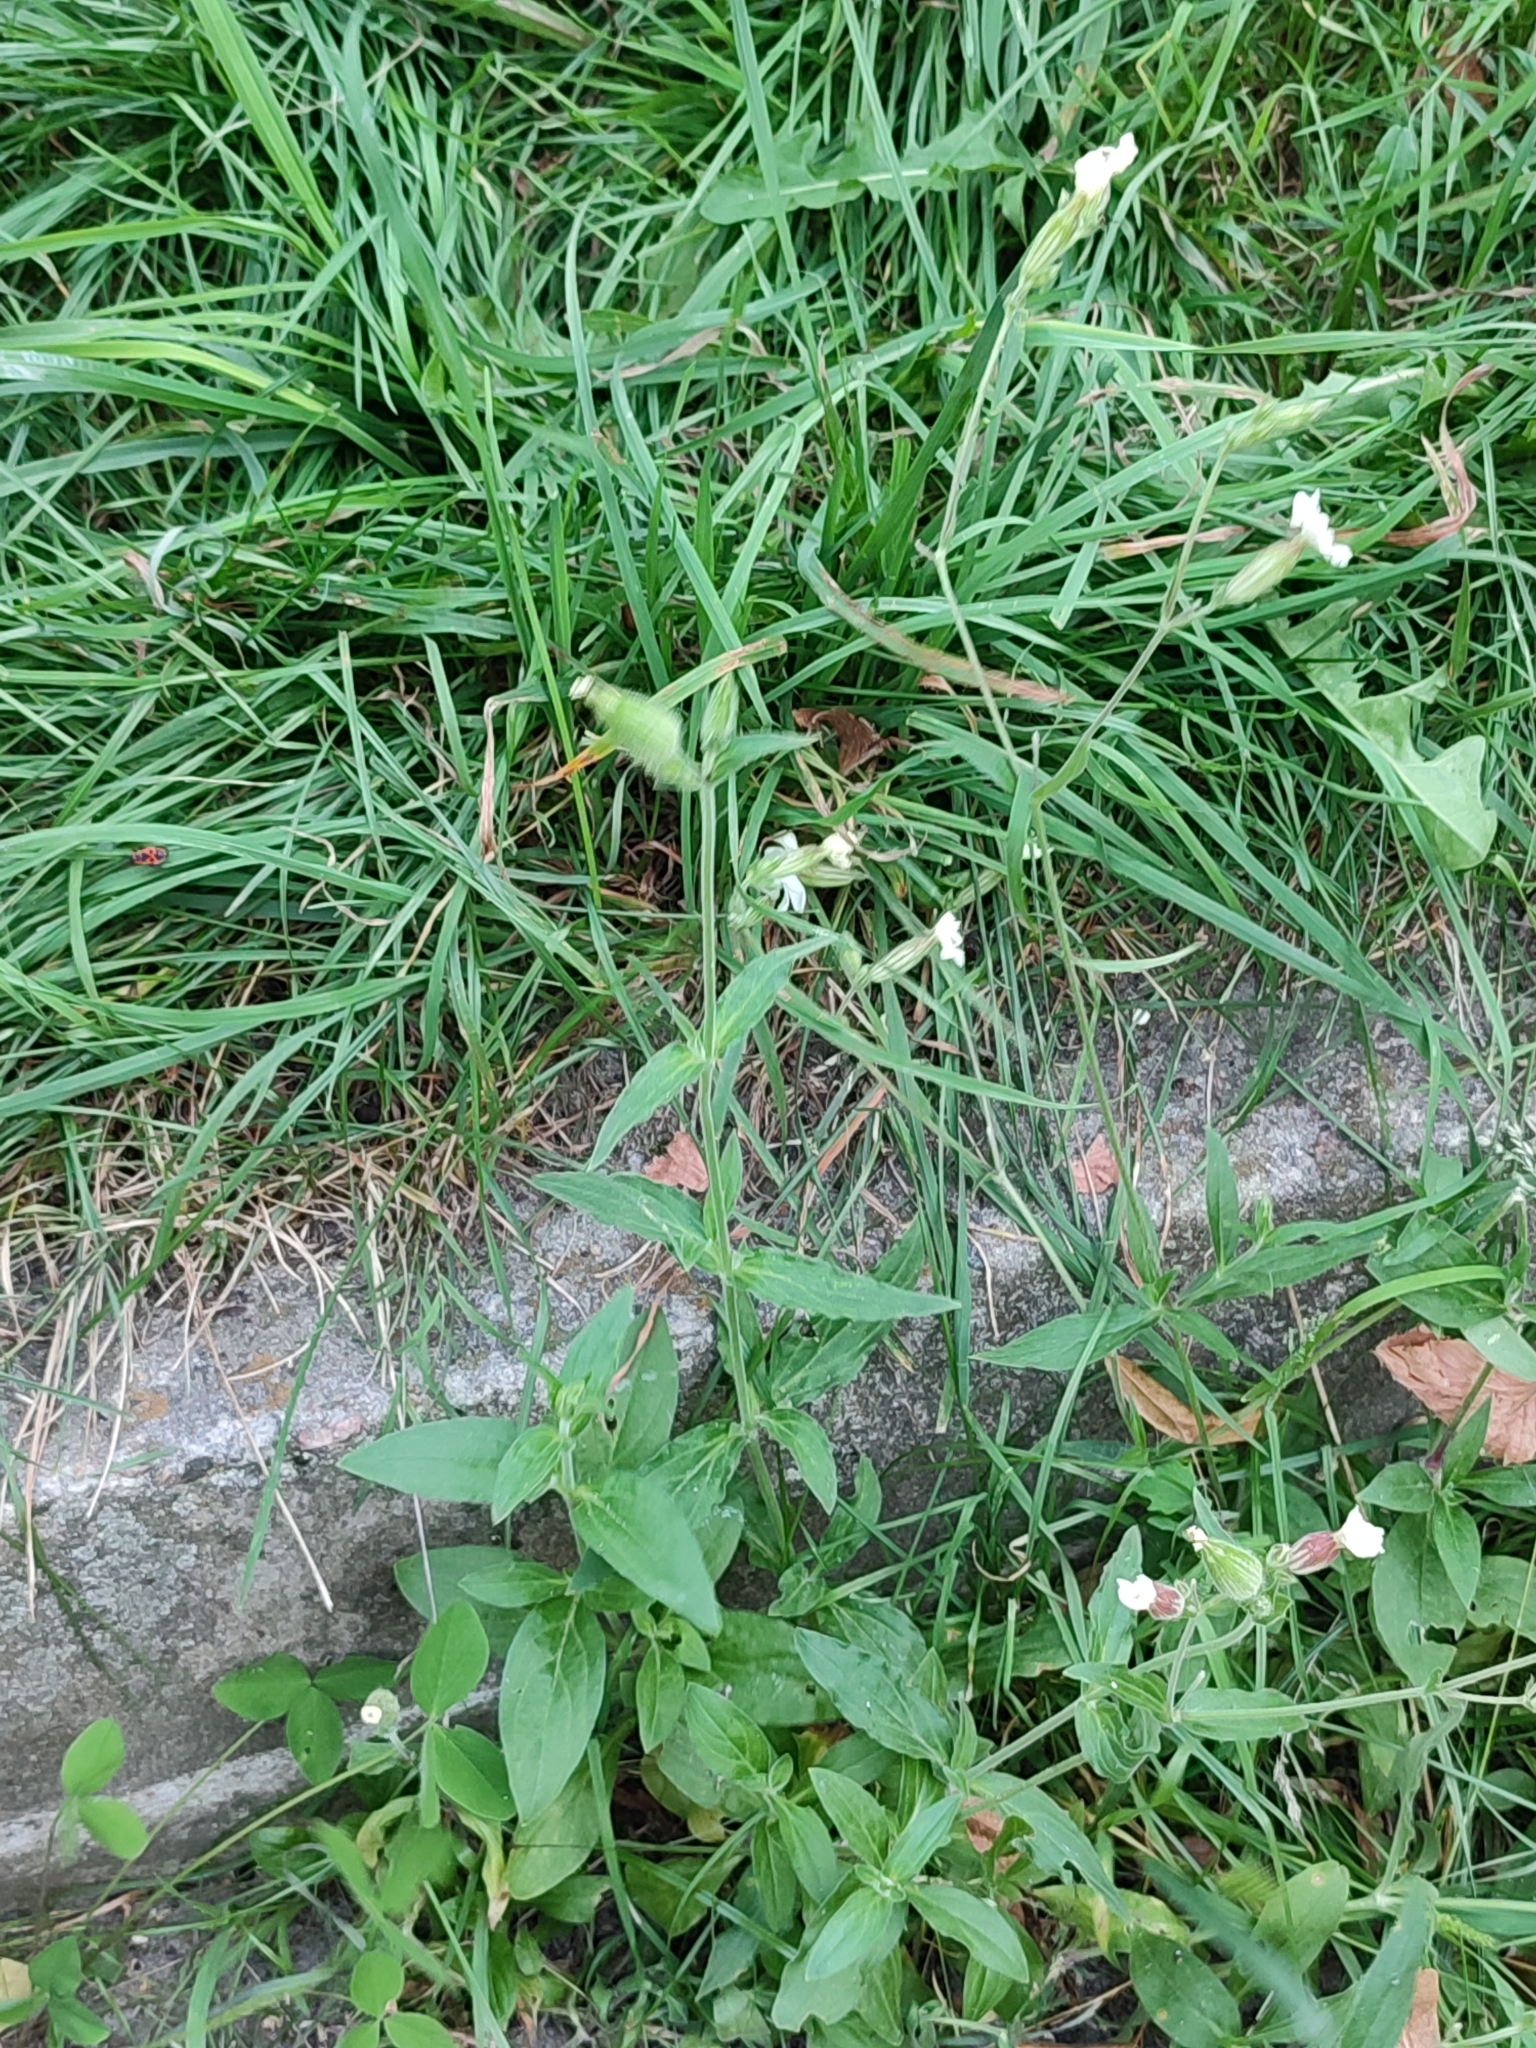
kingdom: Plantae
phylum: Tracheophyta
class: Magnoliopsida
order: Caryophyllales
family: Caryophyllaceae
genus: Silene
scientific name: Silene latifolia
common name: White campion
